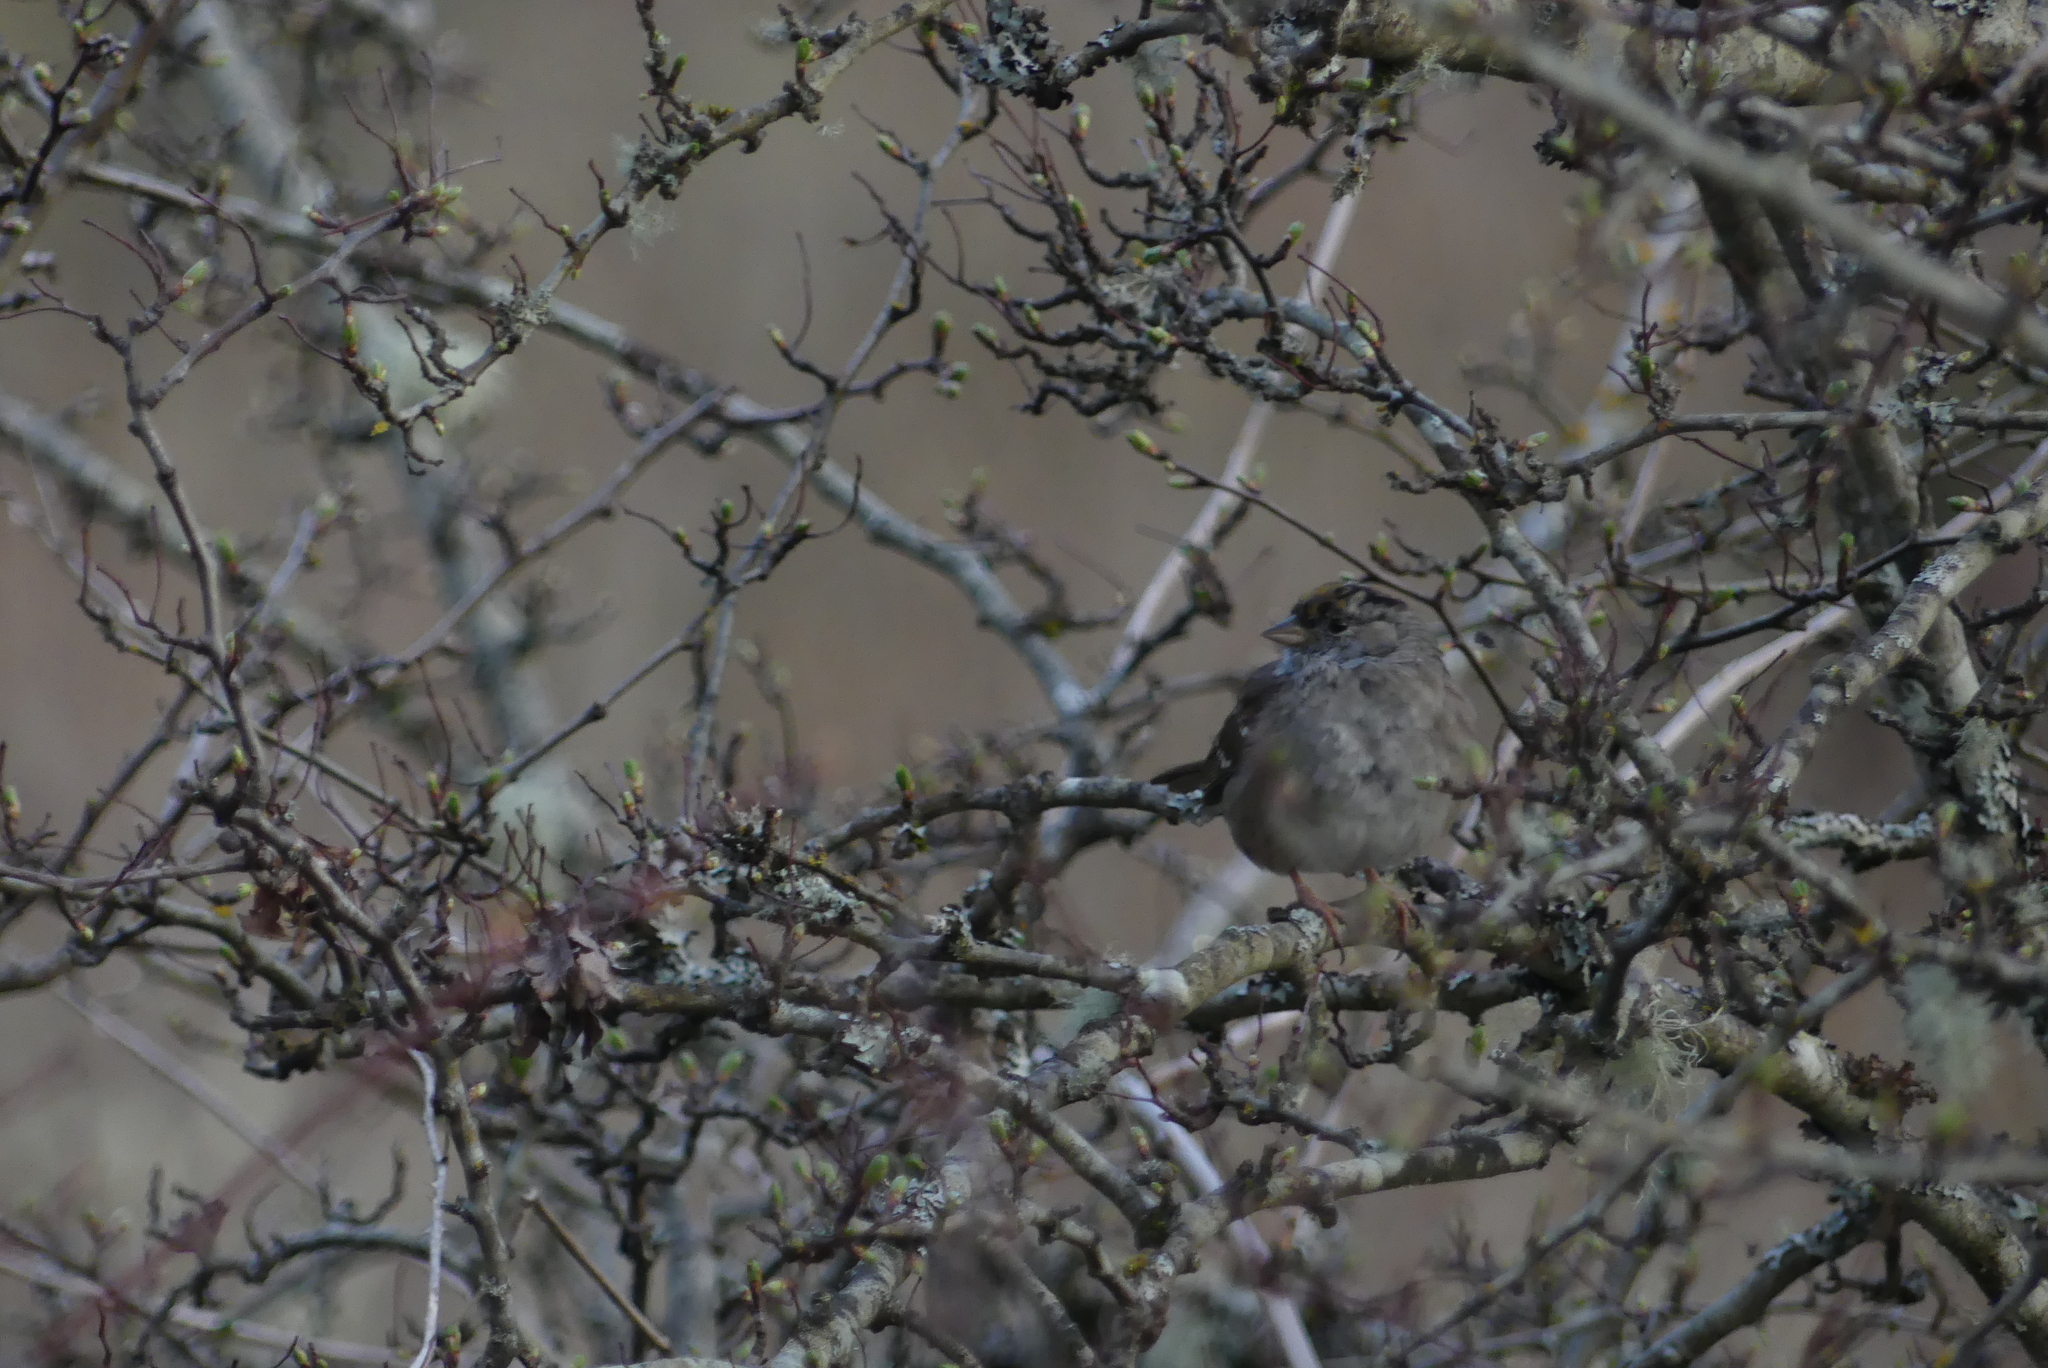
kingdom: Animalia
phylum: Chordata
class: Aves
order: Passeriformes
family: Passerellidae
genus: Zonotrichia
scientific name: Zonotrichia atricapilla
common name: Golden-crowned sparrow
